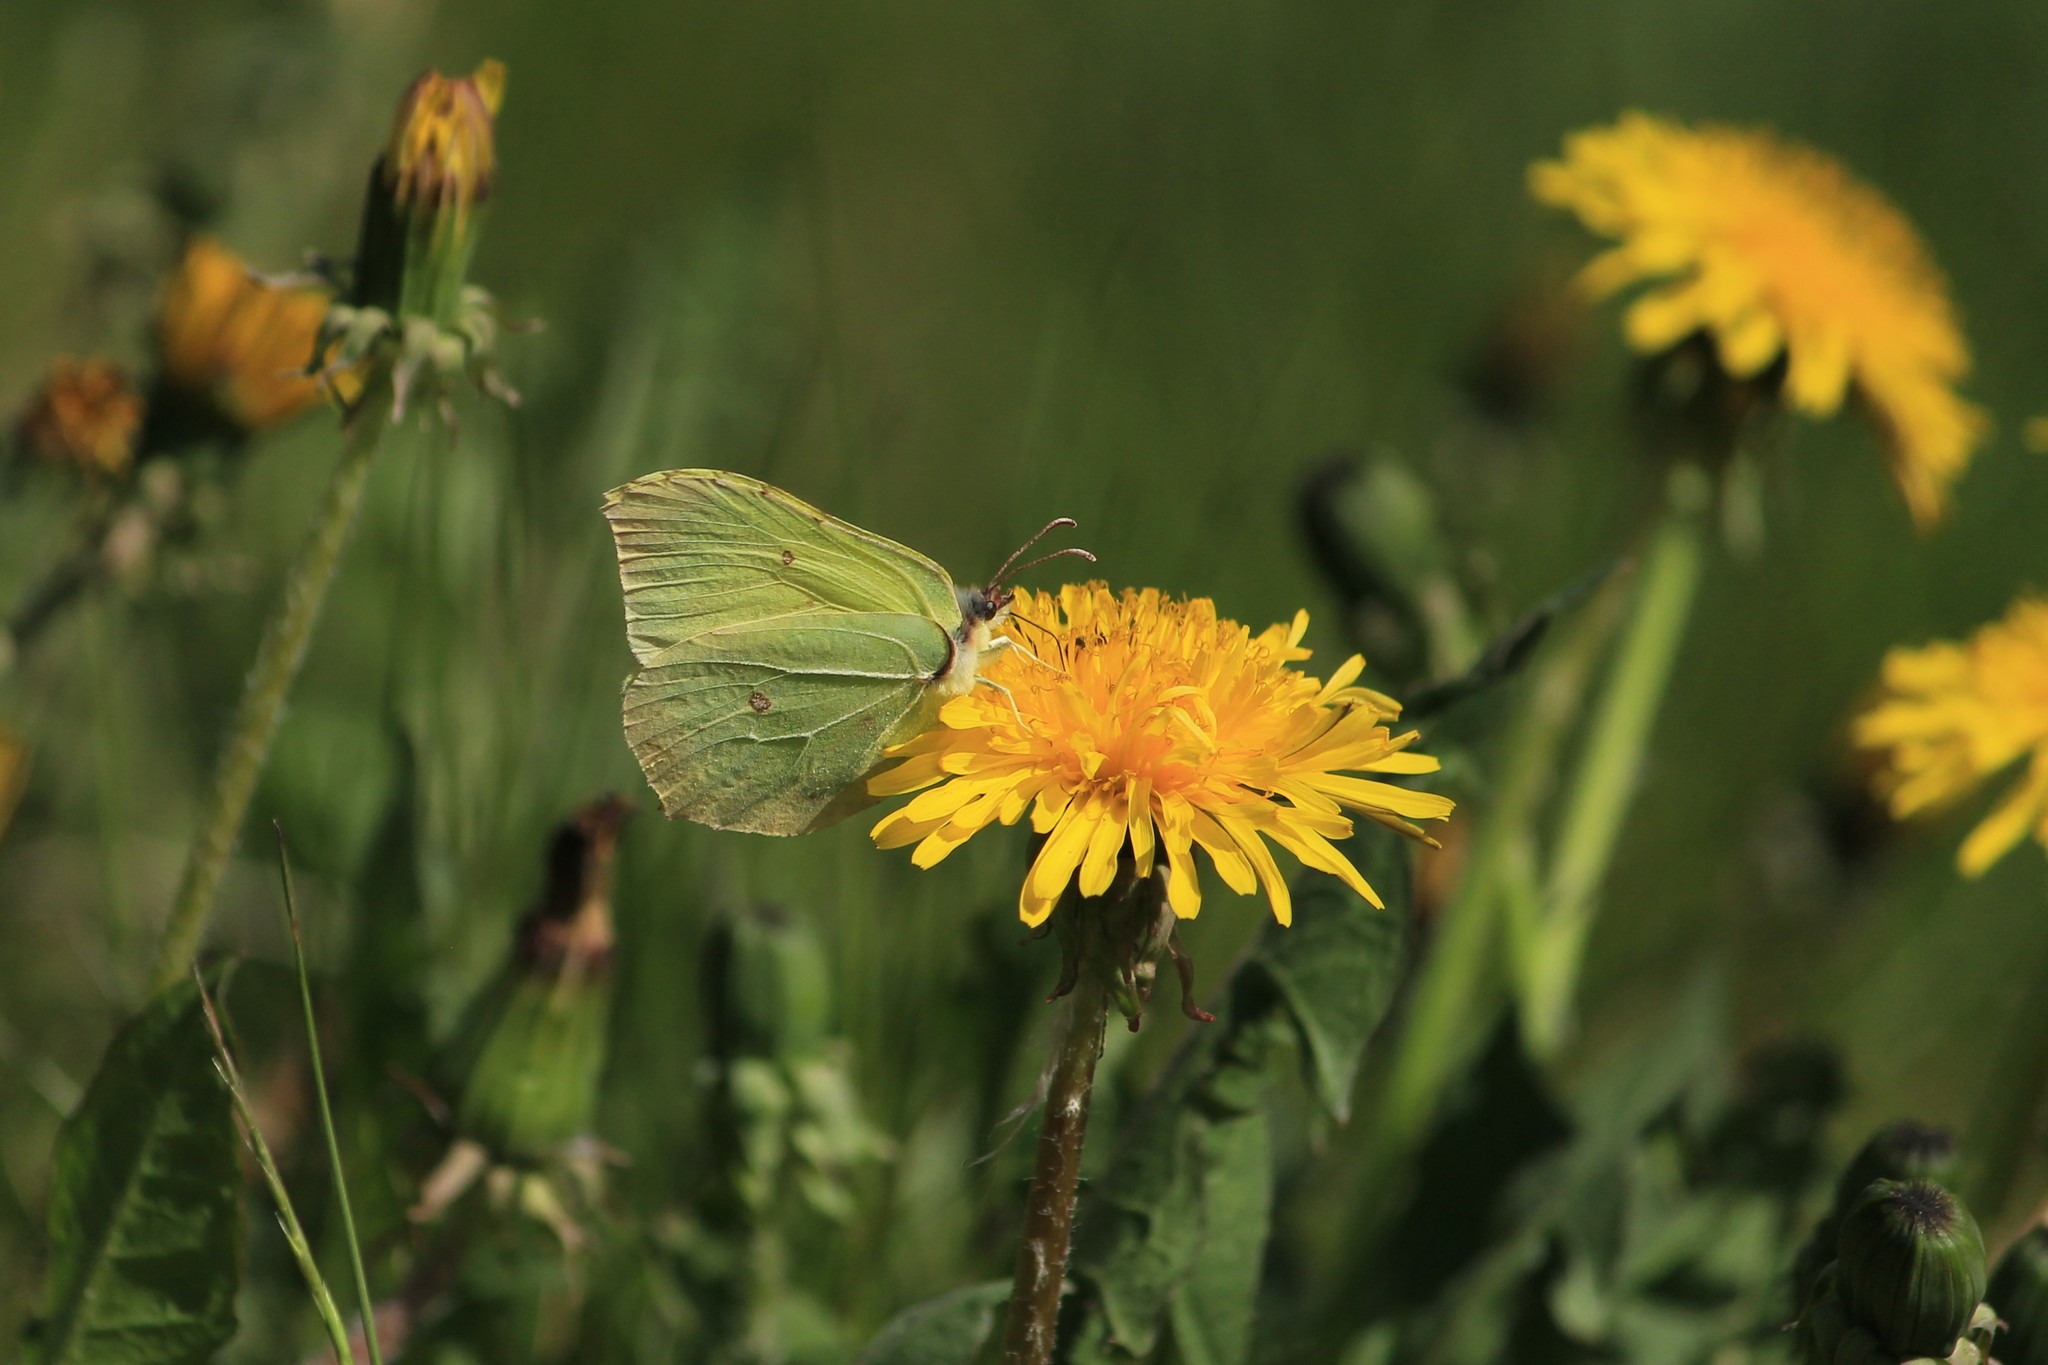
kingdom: Animalia
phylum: Arthropoda
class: Insecta
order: Lepidoptera
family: Pieridae
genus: Gonepteryx
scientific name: Gonepteryx rhamni
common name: Brimstone
